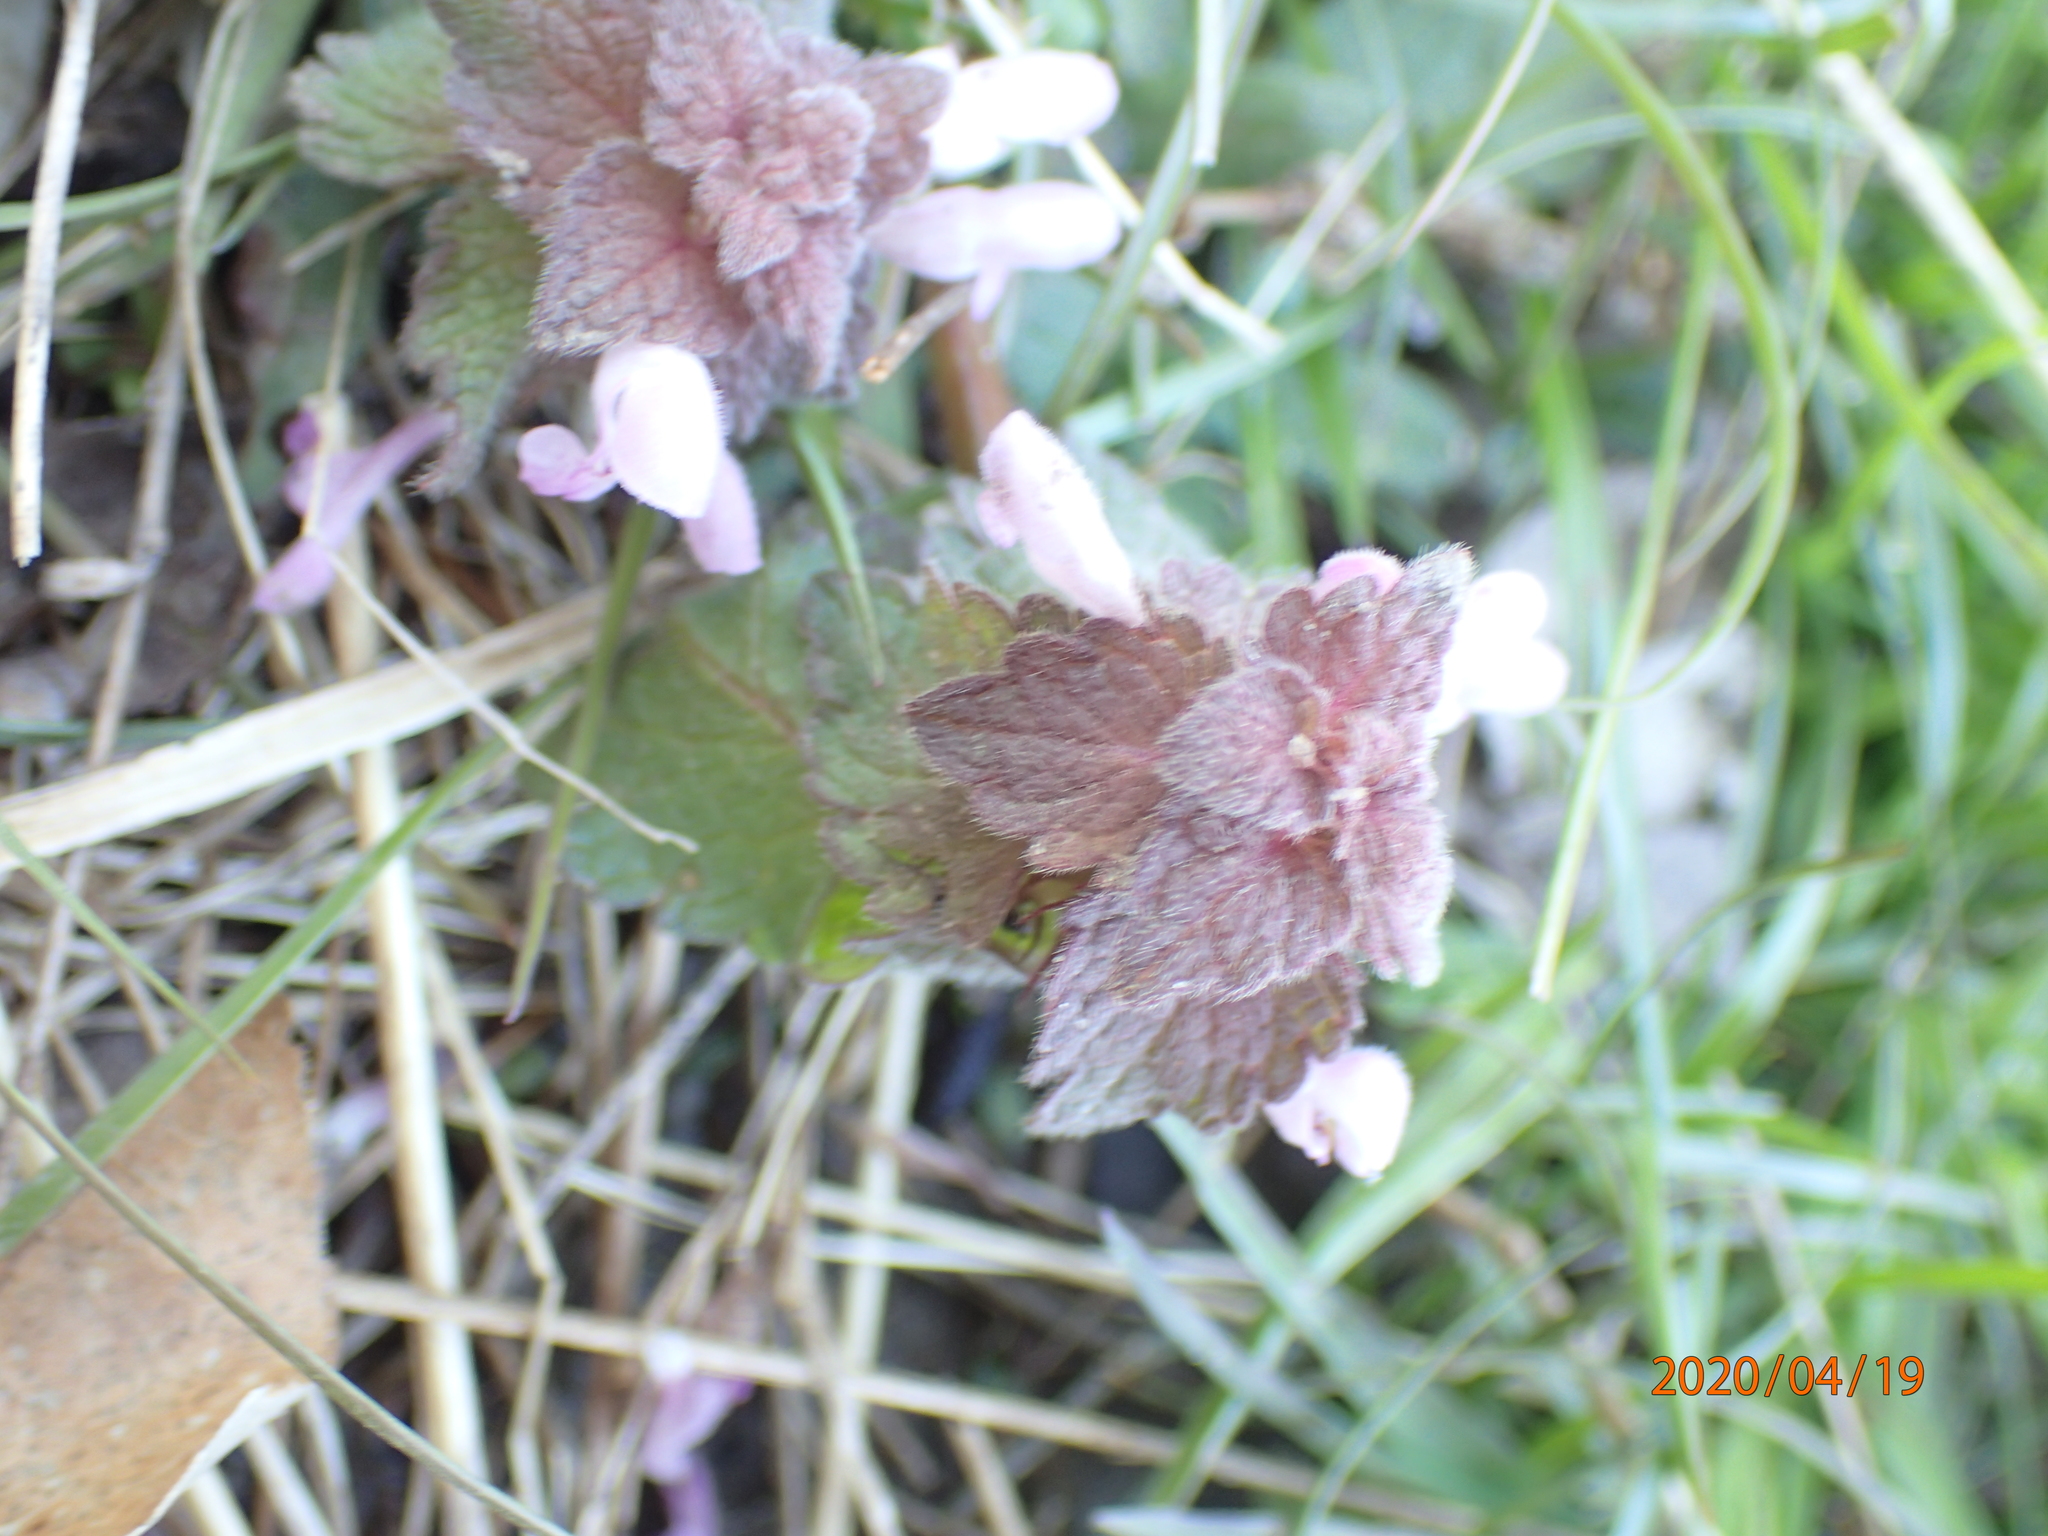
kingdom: Plantae
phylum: Tracheophyta
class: Magnoliopsida
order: Lamiales
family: Lamiaceae
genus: Lamium
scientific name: Lamium purpureum
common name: Red dead-nettle
